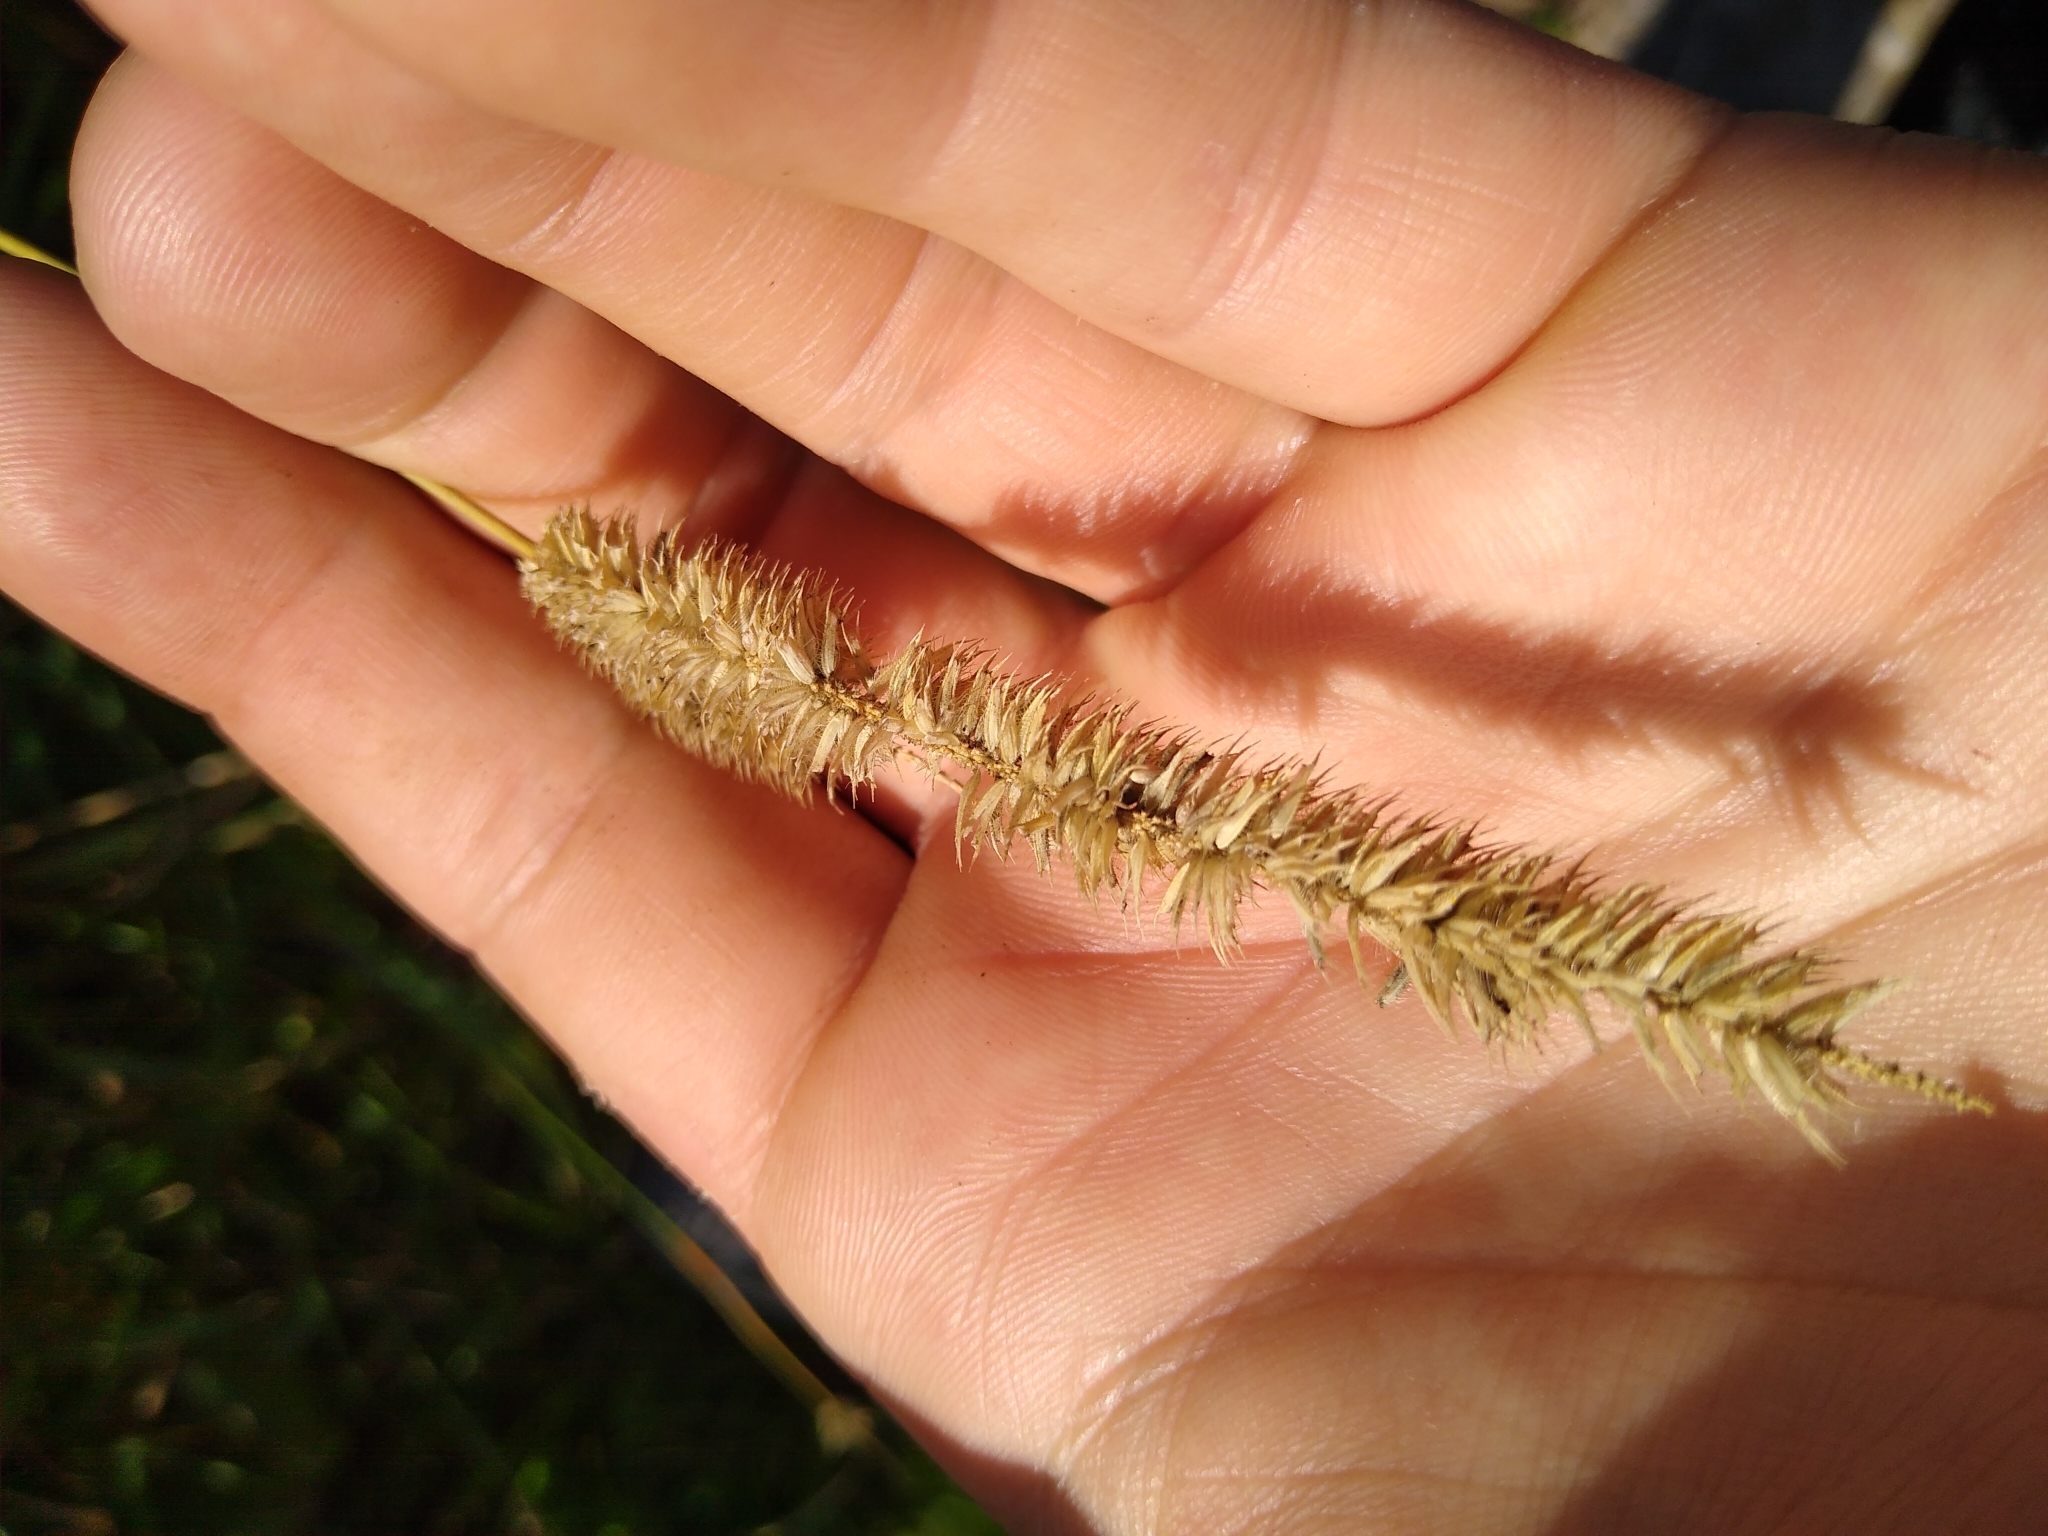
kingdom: Plantae
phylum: Tracheophyta
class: Liliopsida
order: Poales
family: Poaceae
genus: Phleum
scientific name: Phleum pratense
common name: Timothy grass
